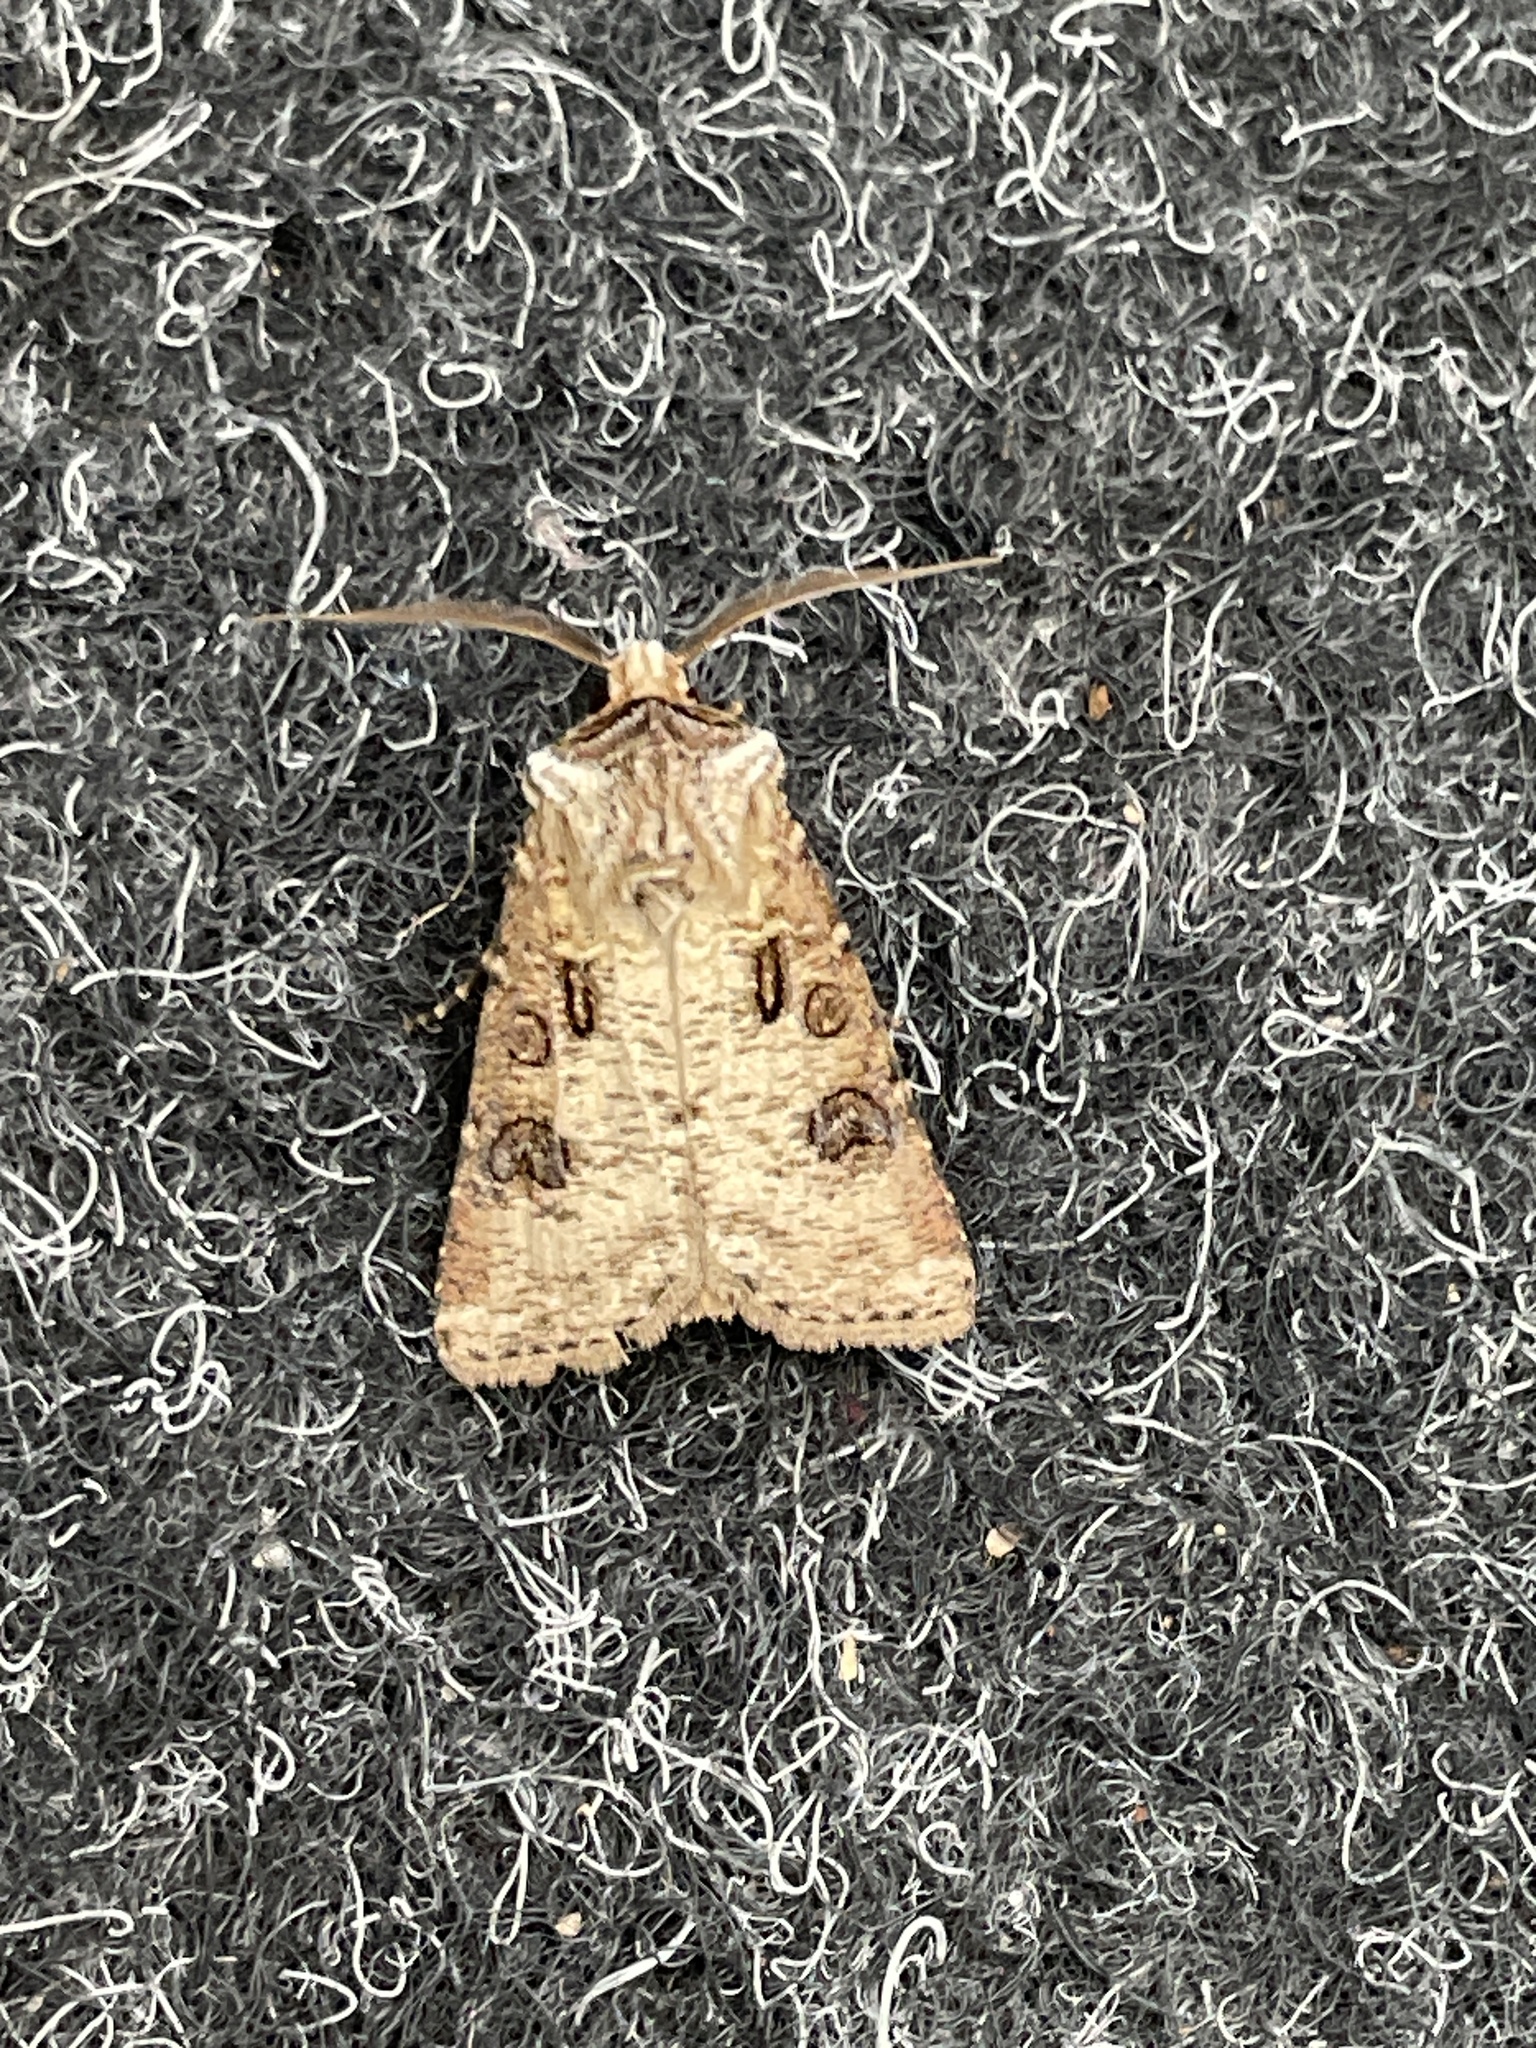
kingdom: Animalia
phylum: Arthropoda
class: Insecta
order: Lepidoptera
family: Noctuidae
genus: Agrotis
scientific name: Agrotis clavis
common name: Heart and club
